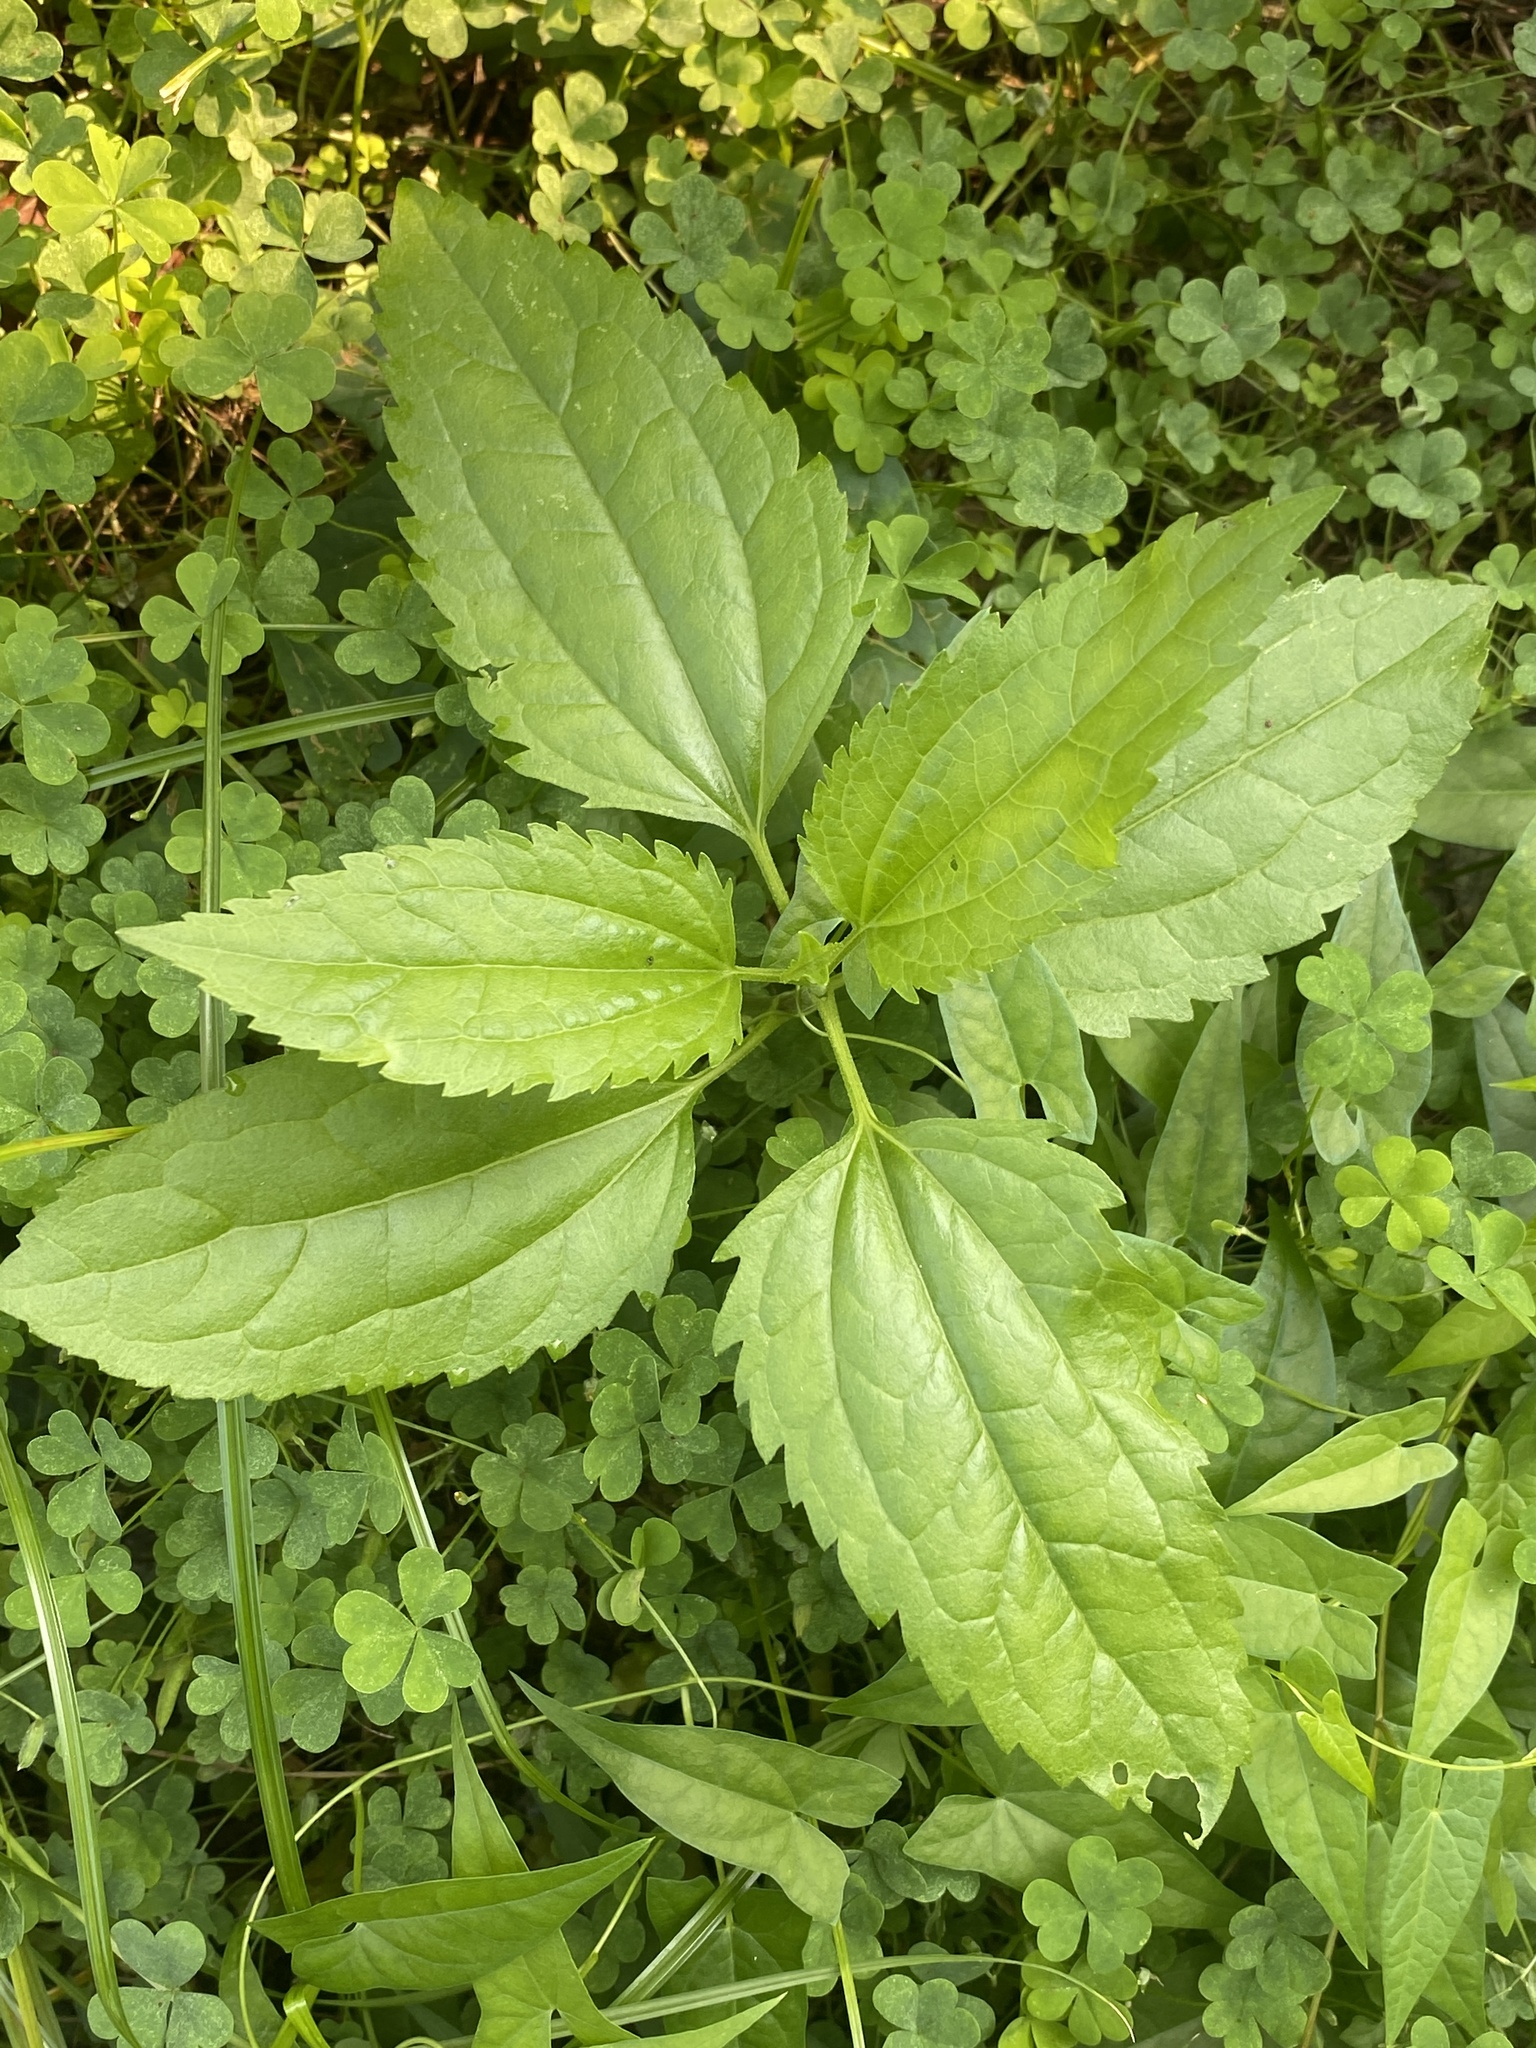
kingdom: Plantae
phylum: Tracheophyta
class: Magnoliopsida
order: Asterales
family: Asteraceae
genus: Eupatorium
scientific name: Eupatorium serotinum
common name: Late boneset
